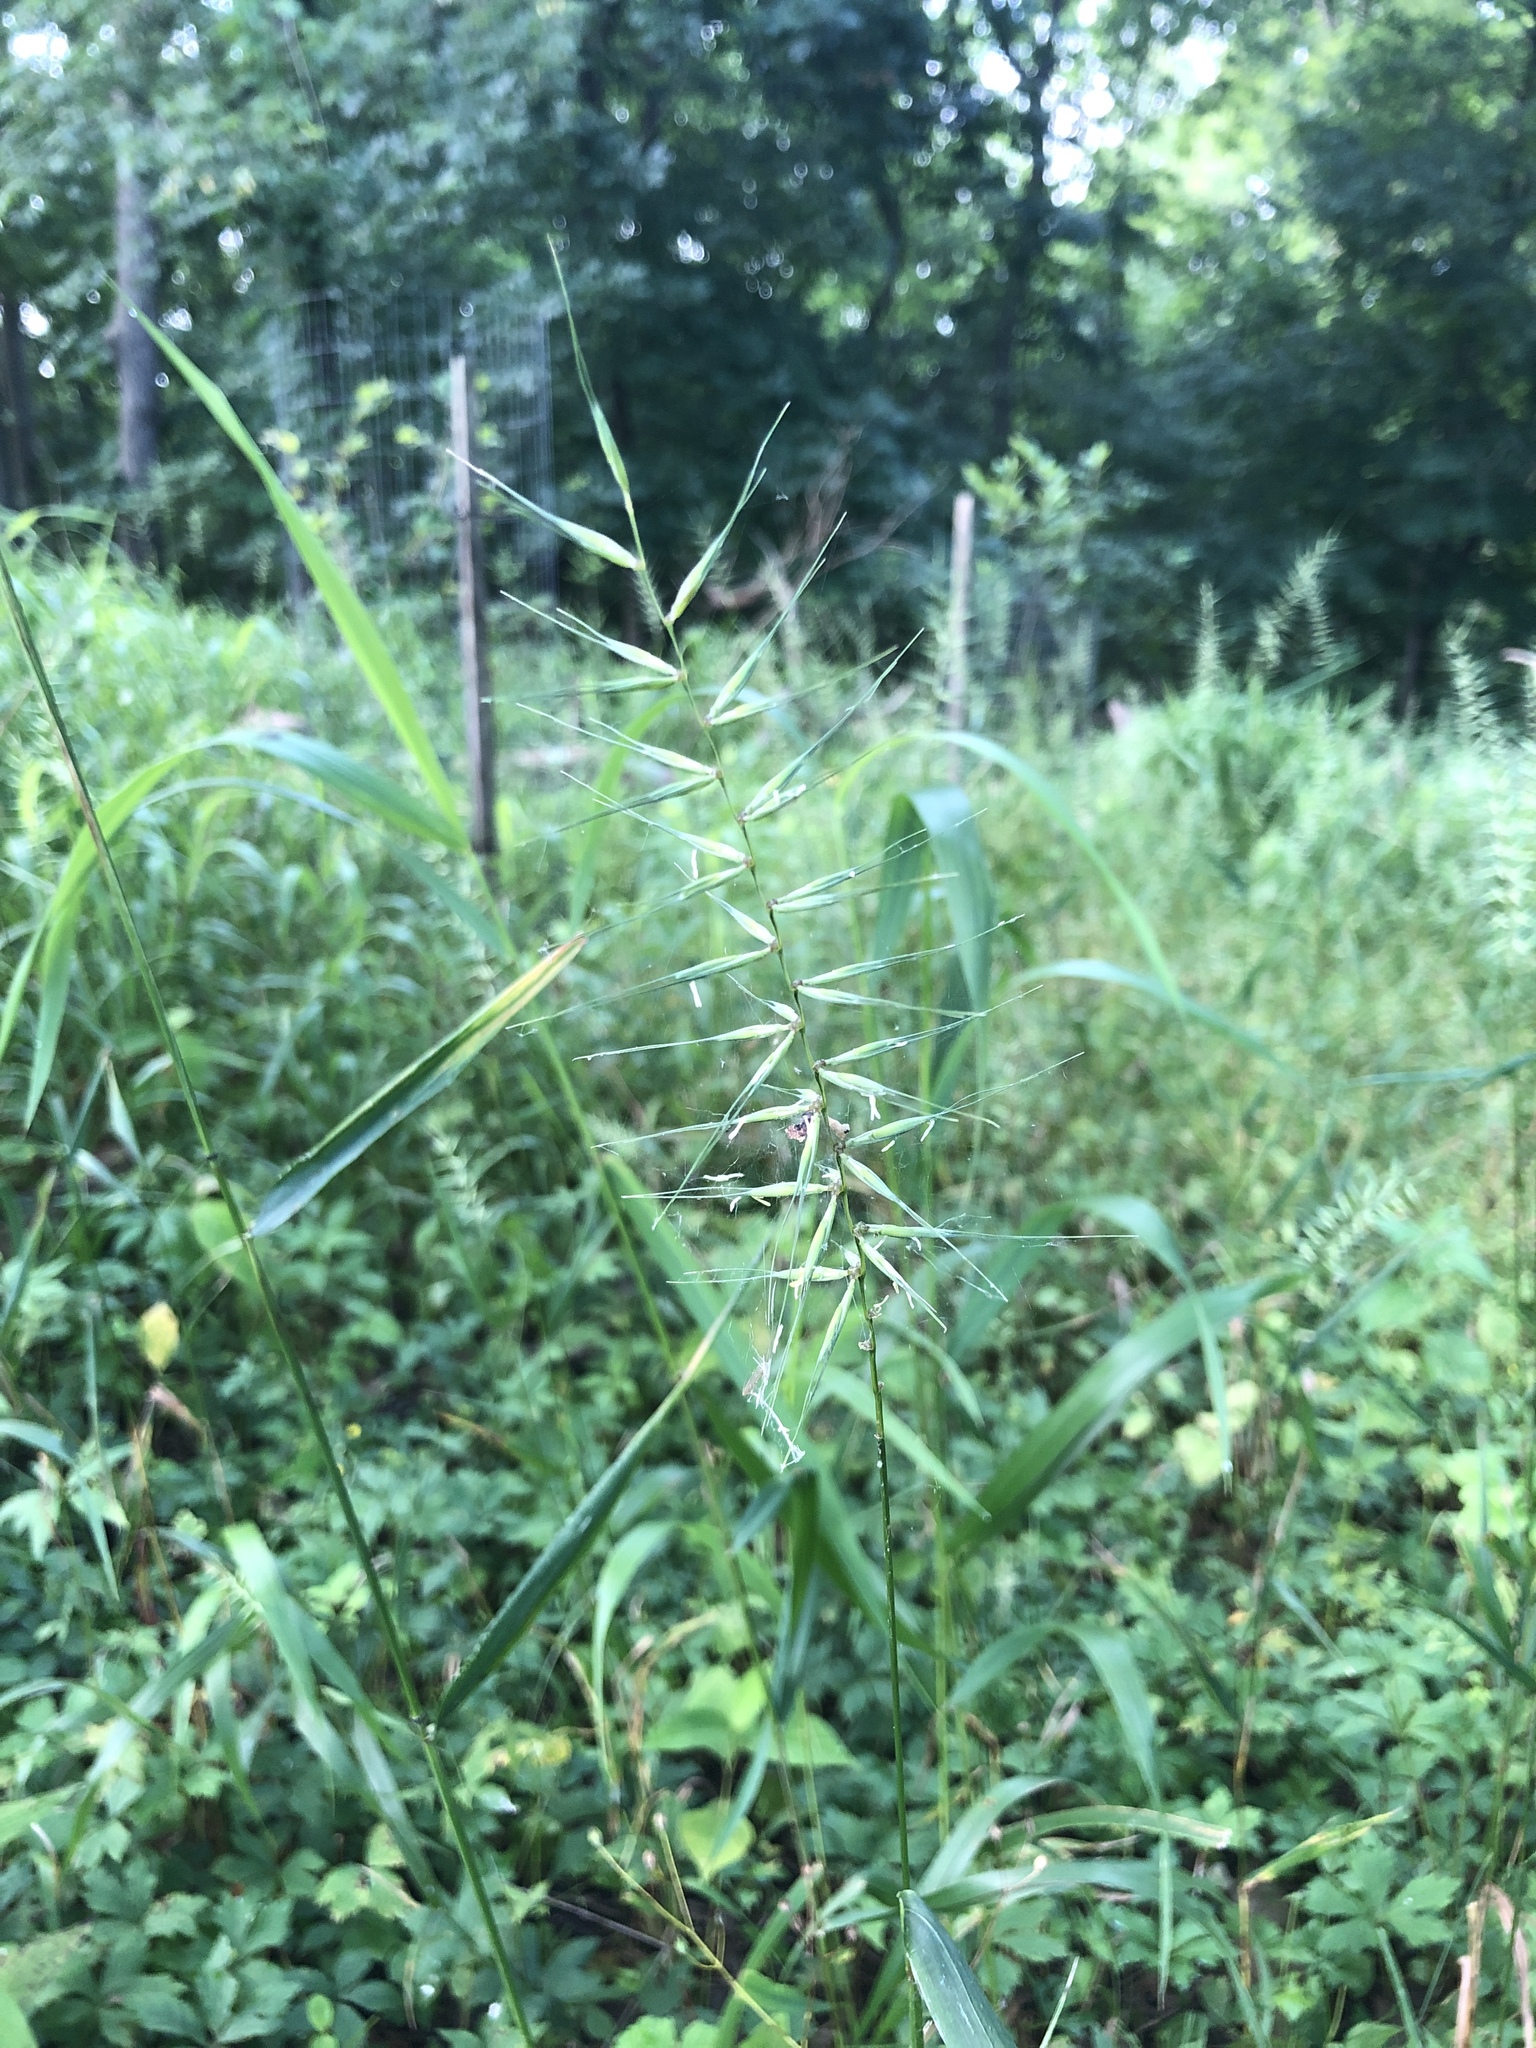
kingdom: Plantae
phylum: Tracheophyta
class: Liliopsida
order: Poales
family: Poaceae
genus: Elymus
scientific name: Elymus hystrix
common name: Bottlebrush grass
